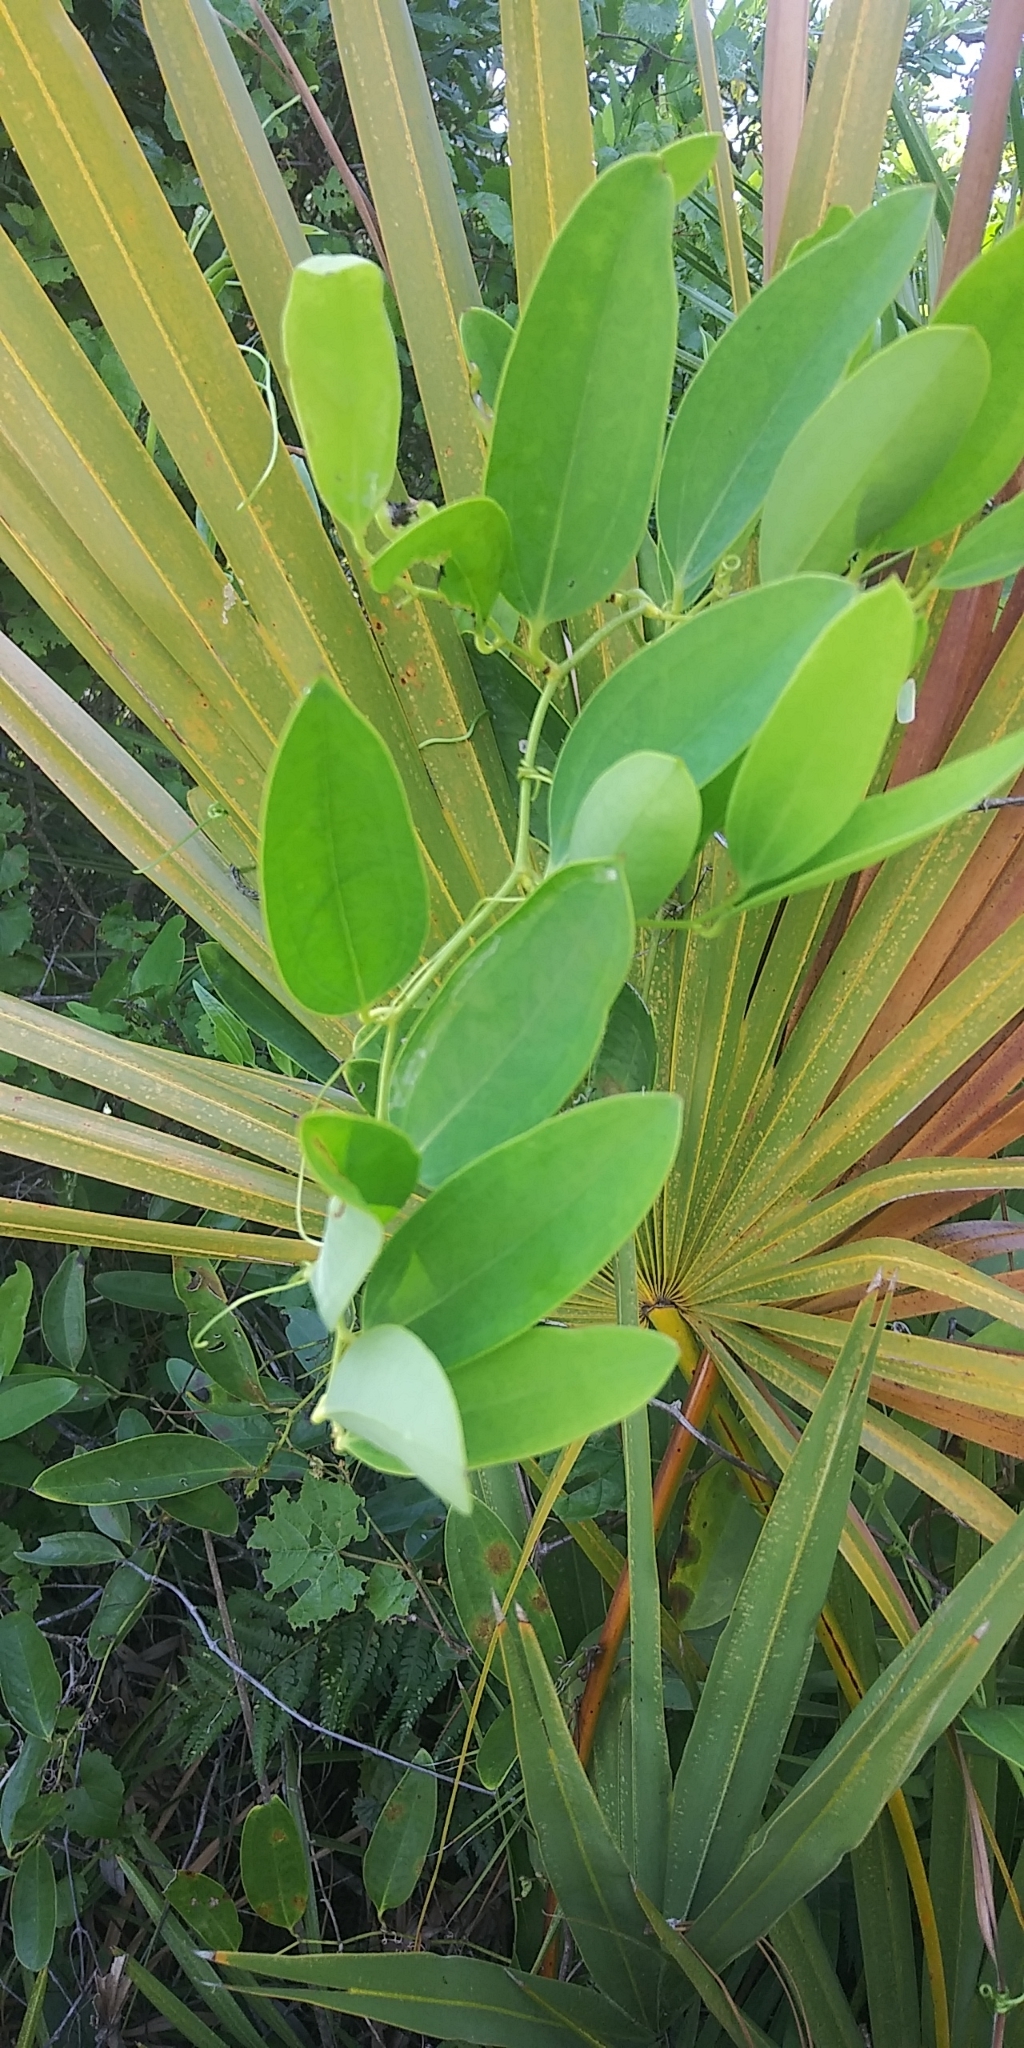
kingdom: Plantae
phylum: Tracheophyta
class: Liliopsida
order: Liliales
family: Smilacaceae
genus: Smilax
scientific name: Smilax laurifolia
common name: Bamboovine
